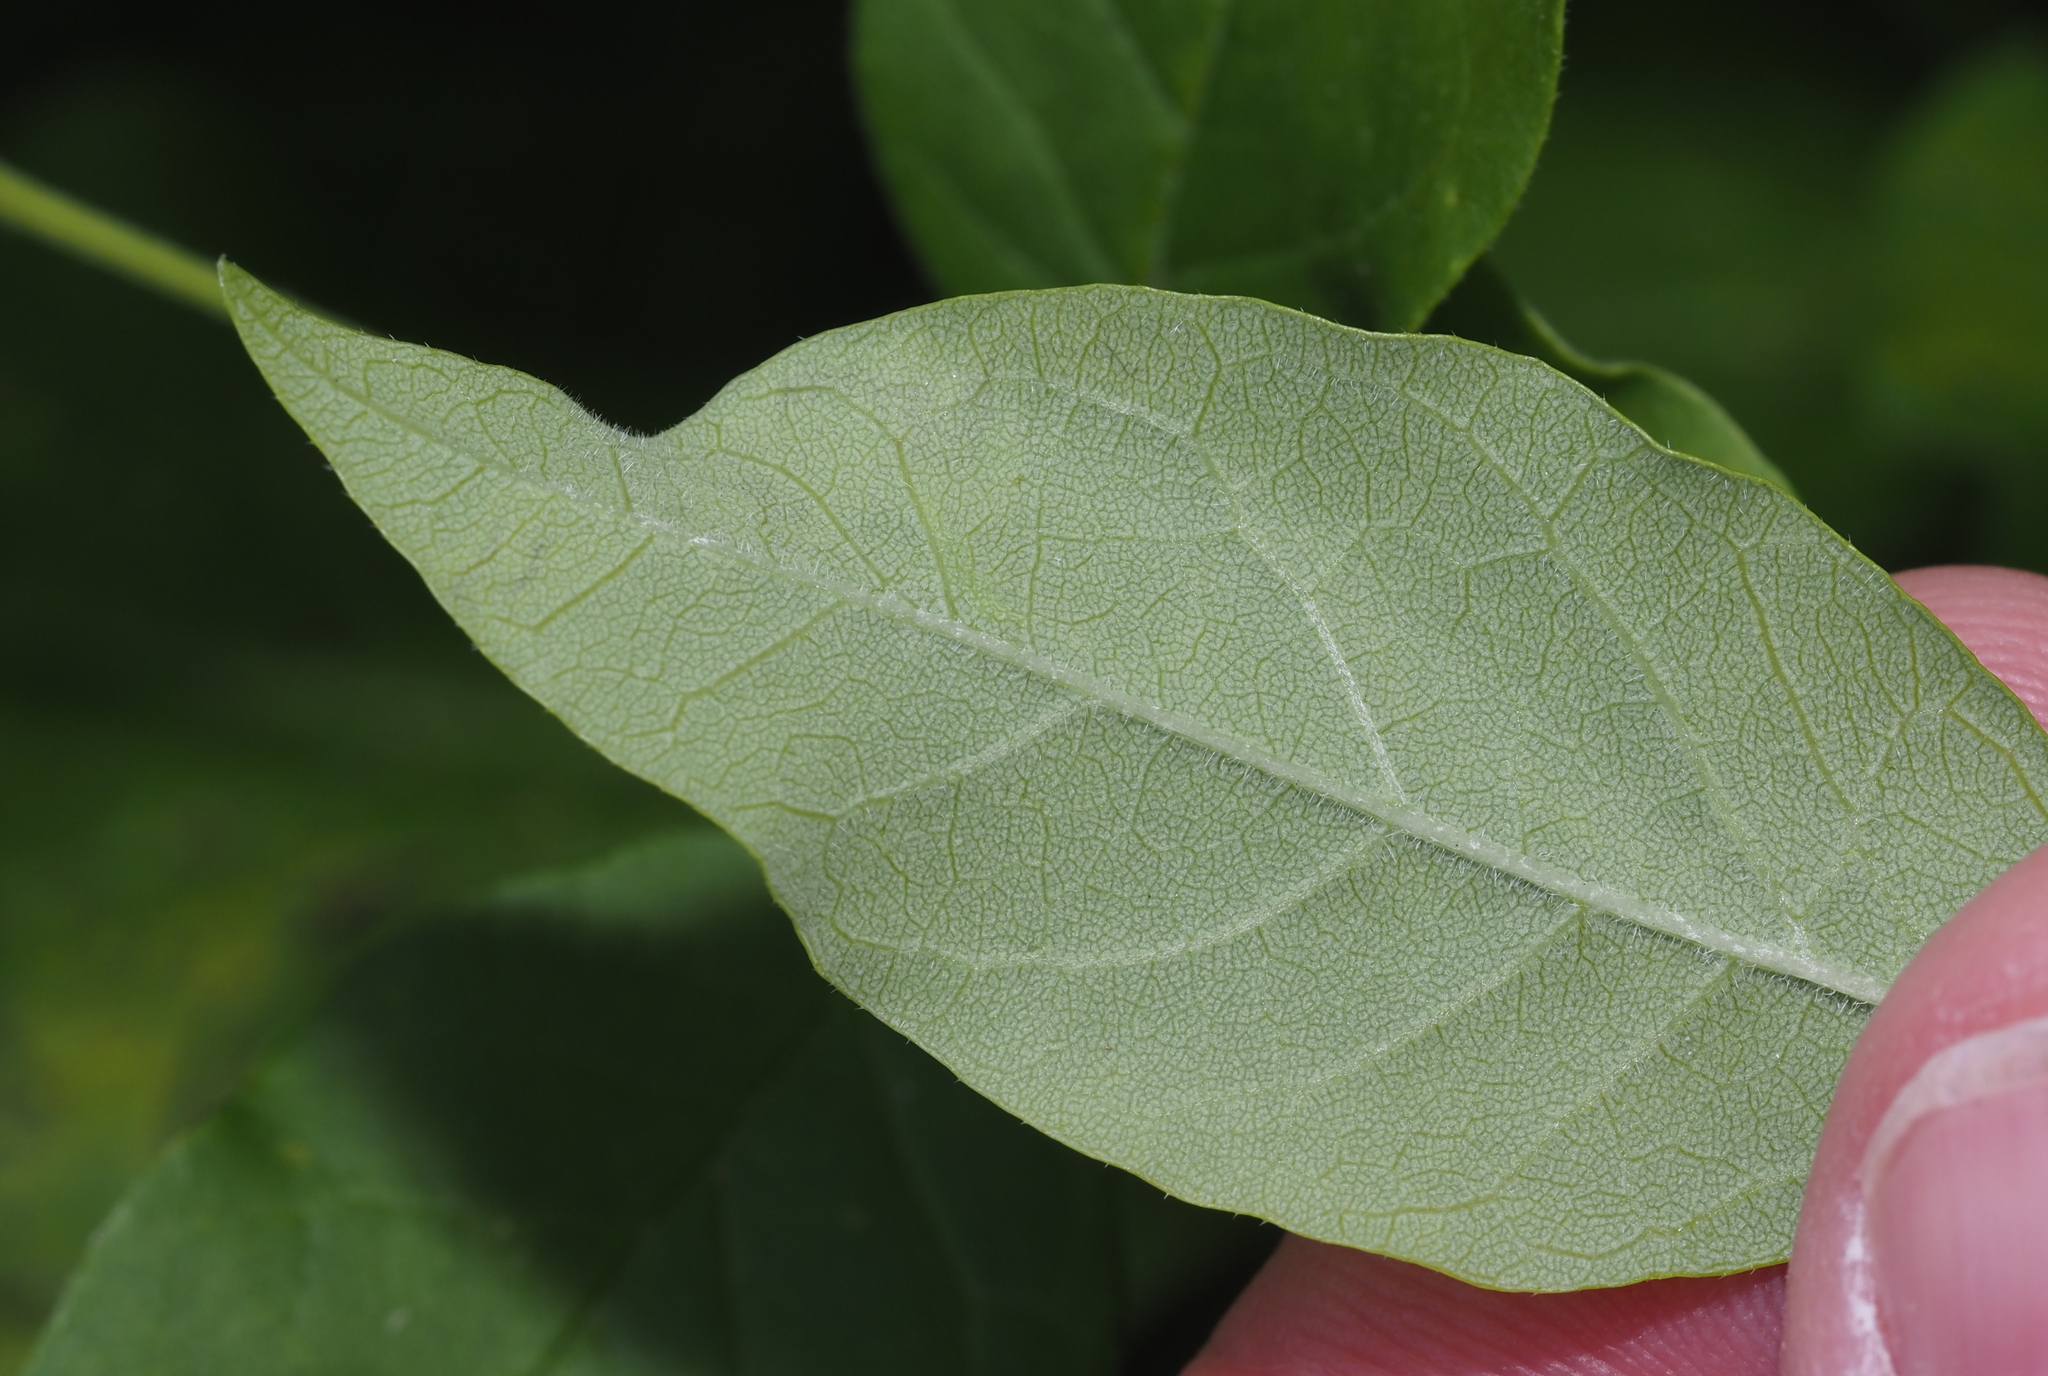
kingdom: Animalia
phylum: Arthropoda
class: Insecta
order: Lepidoptera
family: Gracillariidae
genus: Caloptilia
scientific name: Caloptilia fraxinella
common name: Ash leaf cone roller
